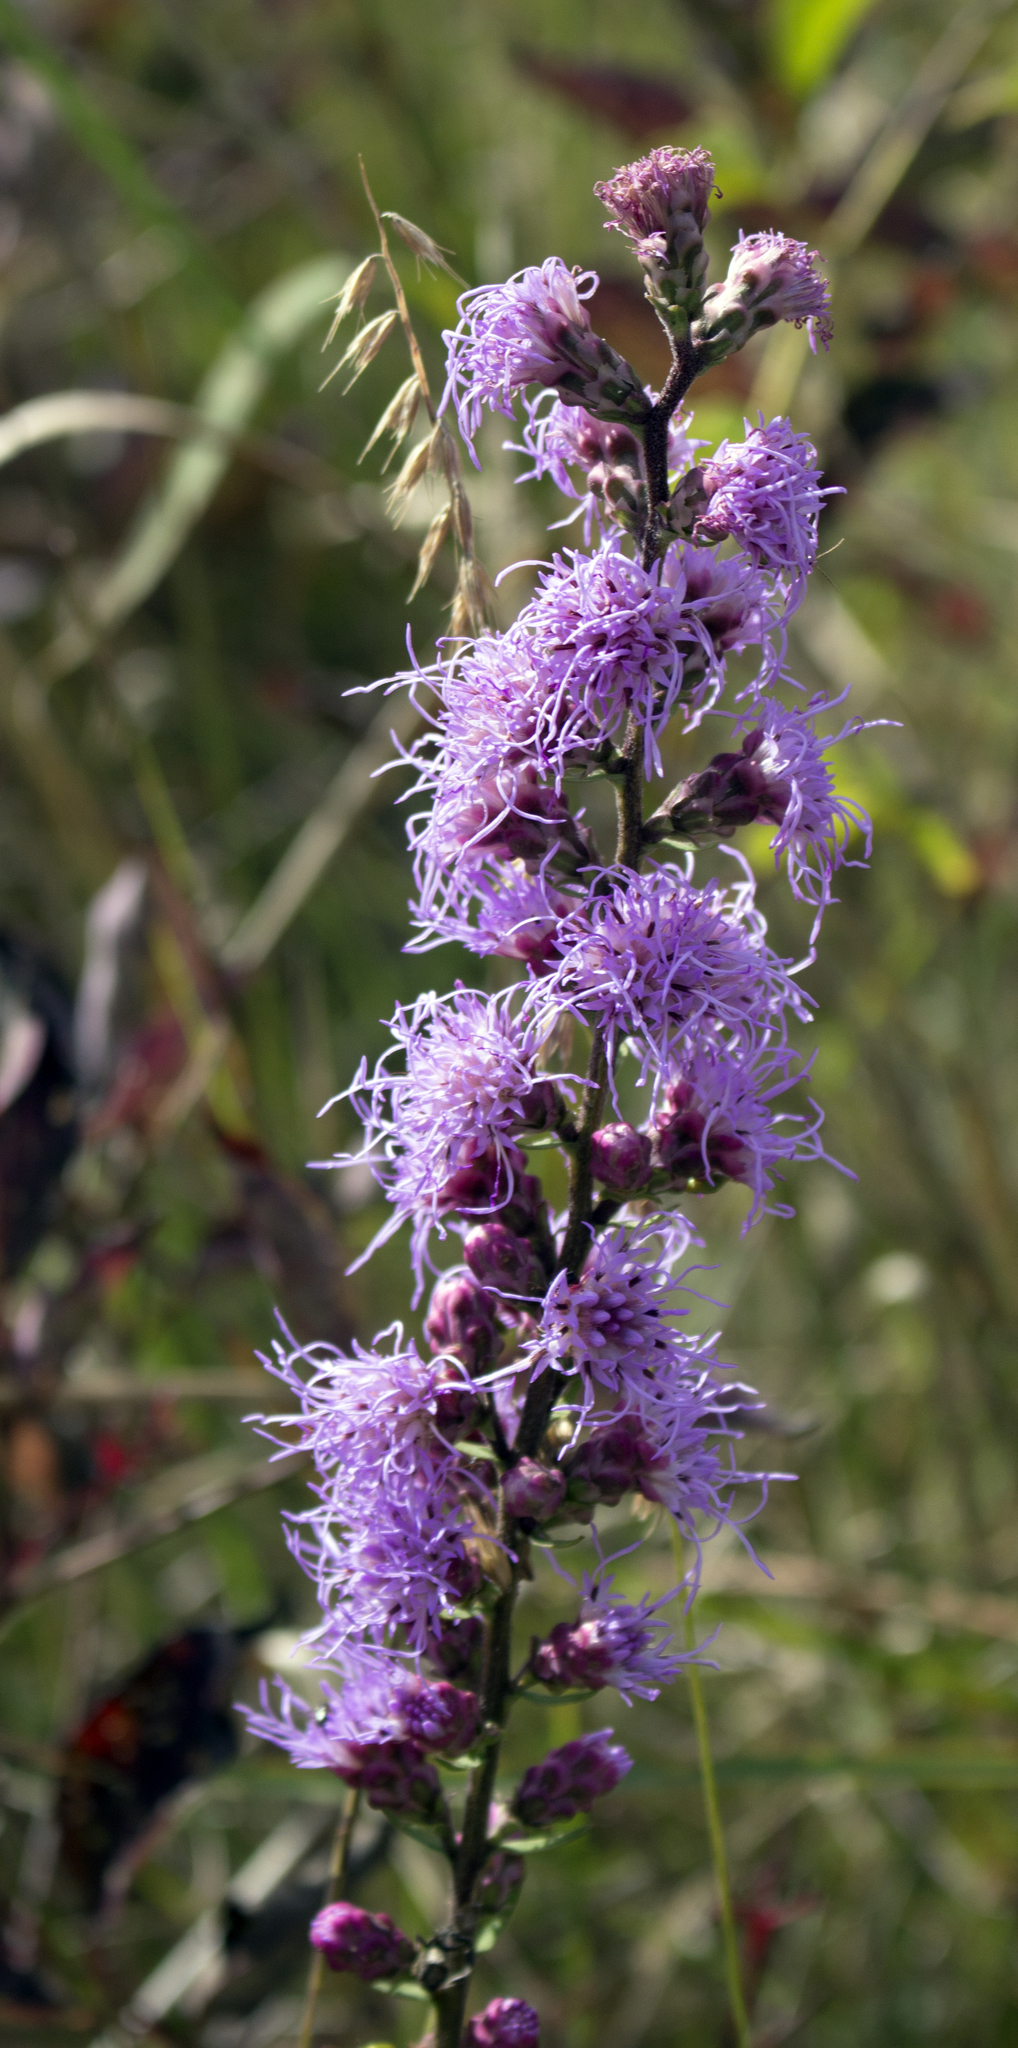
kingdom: Plantae
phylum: Tracheophyta
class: Magnoliopsida
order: Asterales
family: Asteraceae
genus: Liatris
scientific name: Liatris aspera
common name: Lacerate blazing-star
